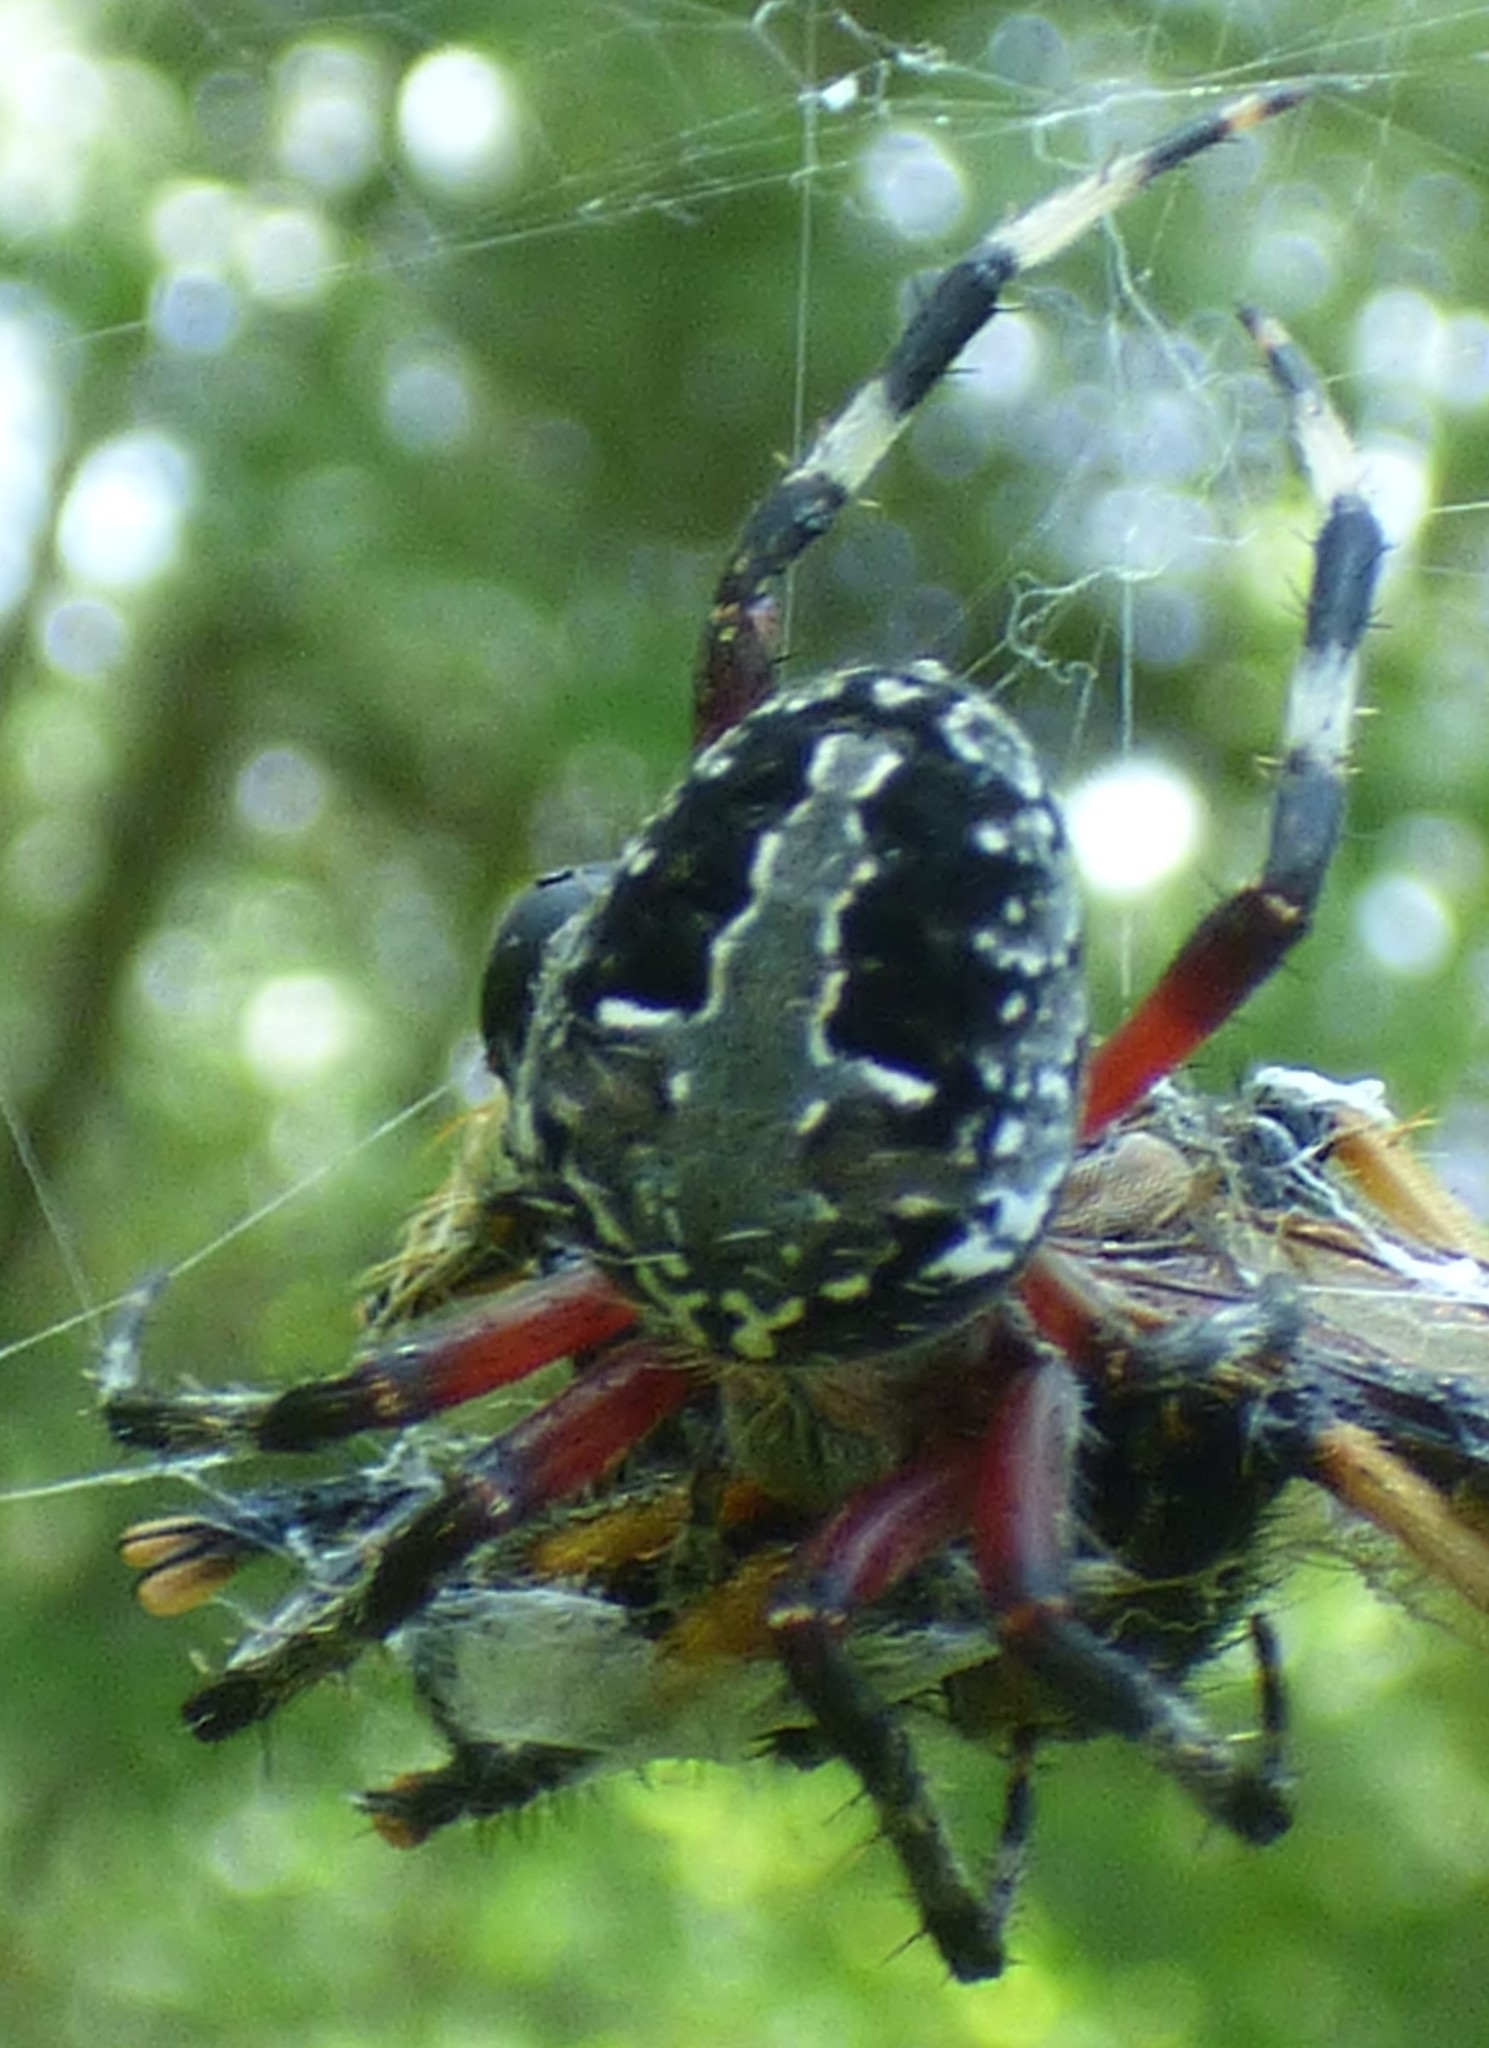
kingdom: Animalia
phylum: Arthropoda
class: Arachnida
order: Araneae
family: Araneidae
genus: Neoscona
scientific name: Neoscona domiciliorum
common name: Red-femured spotted orbweaver
